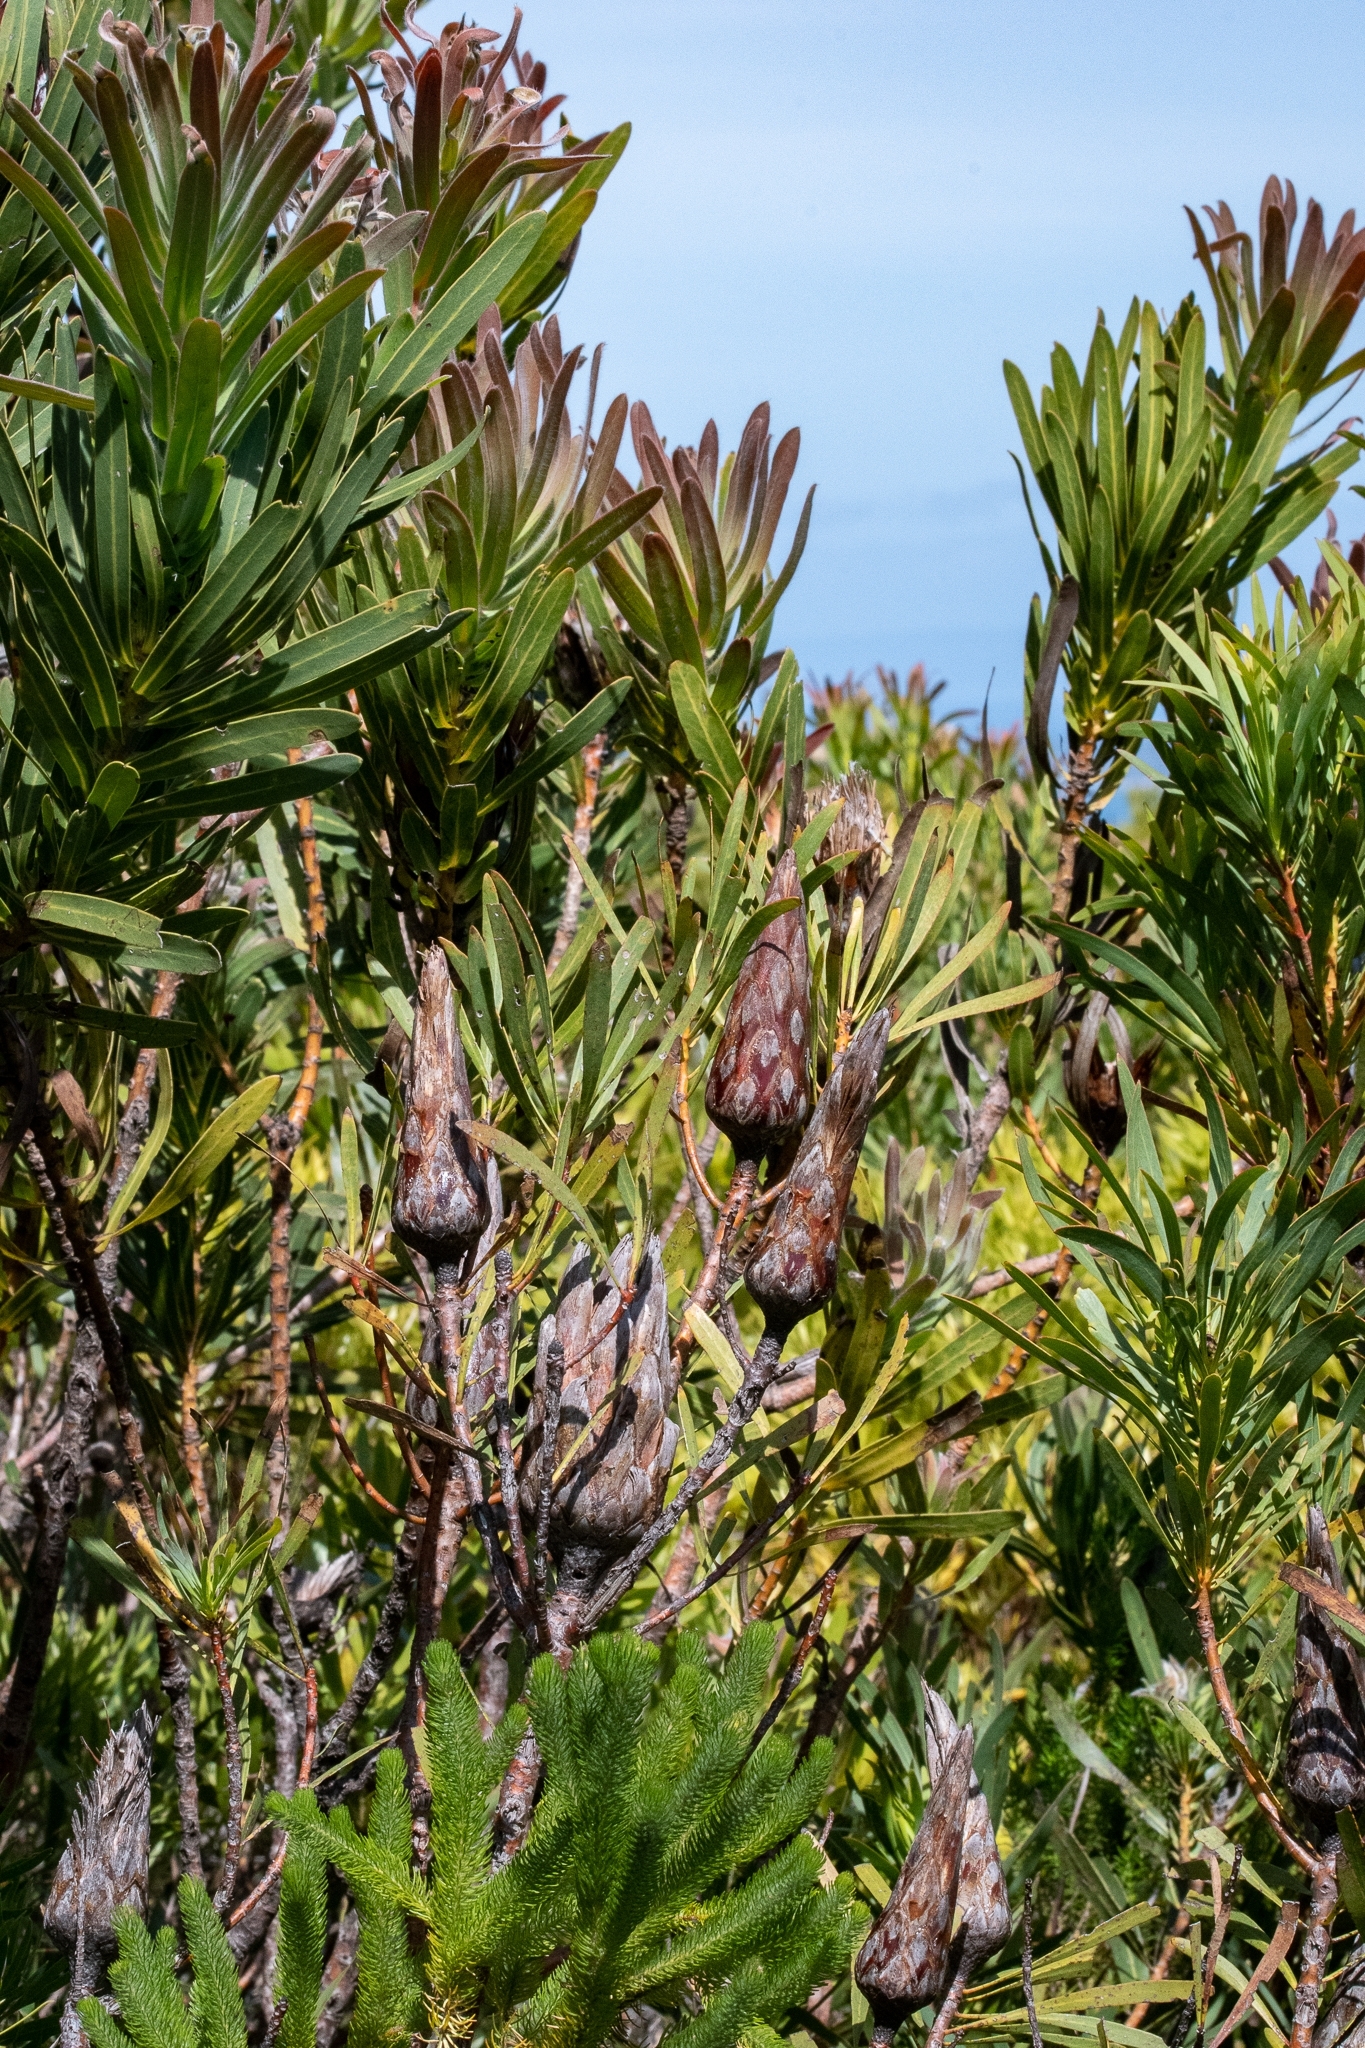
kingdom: Plantae
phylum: Tracheophyta
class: Magnoliopsida
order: Proteales
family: Proteaceae
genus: Protea
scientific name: Protea repens
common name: Sugarbush
